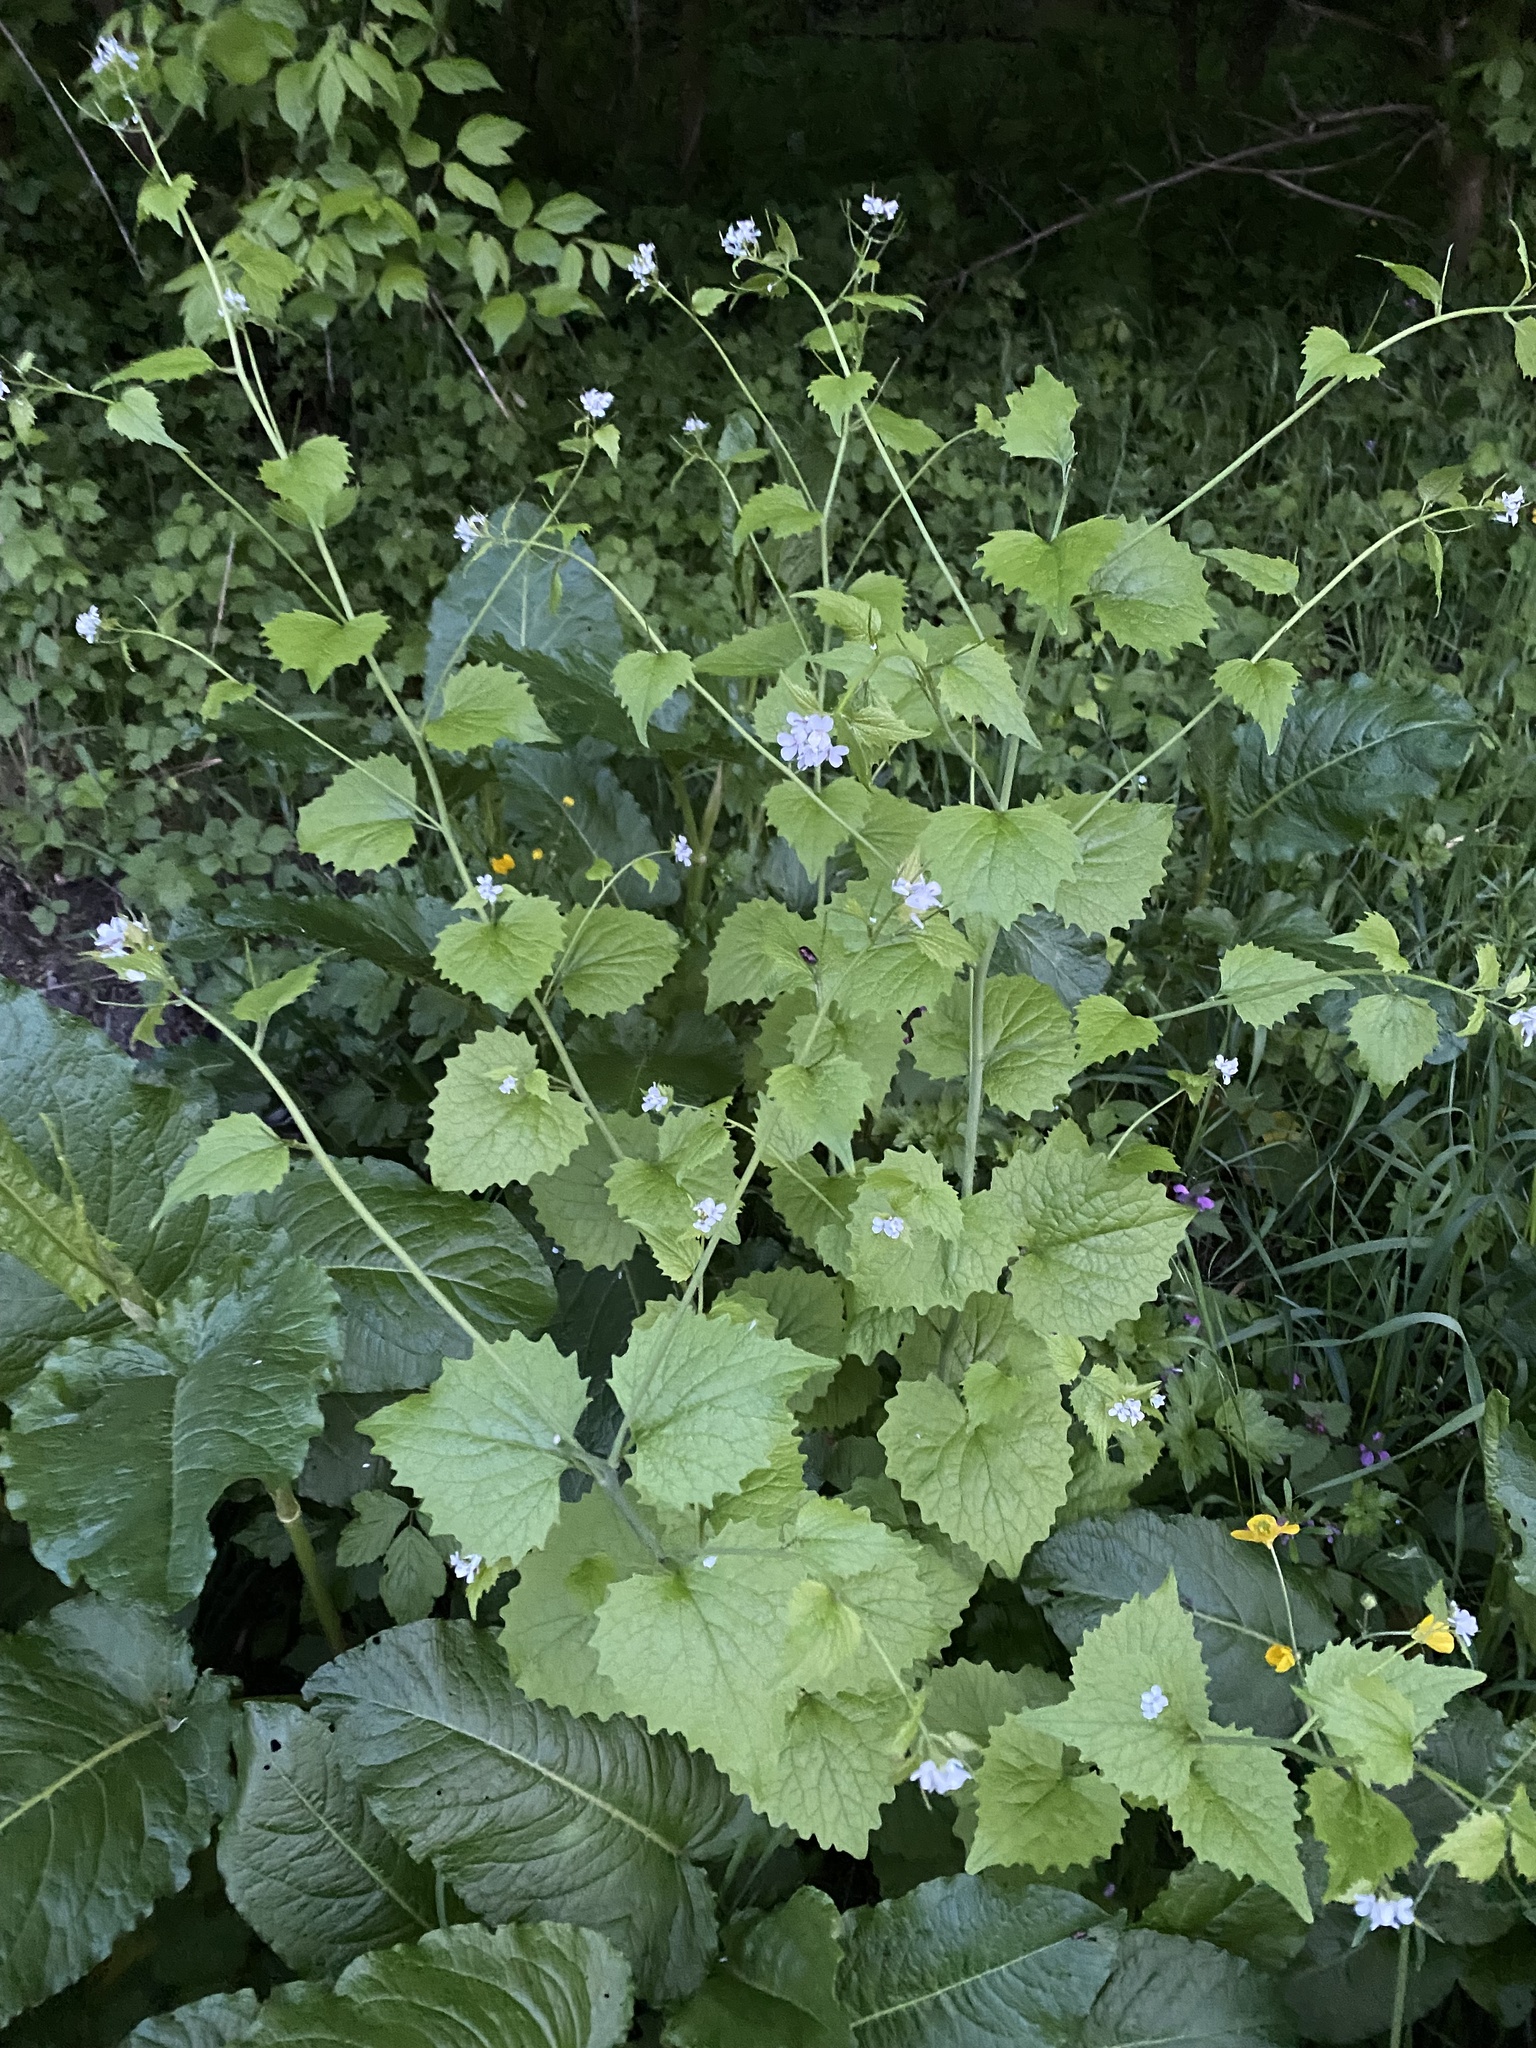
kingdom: Plantae
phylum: Tracheophyta
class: Magnoliopsida
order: Brassicales
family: Brassicaceae
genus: Alliaria
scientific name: Alliaria petiolata
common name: Garlic mustard
